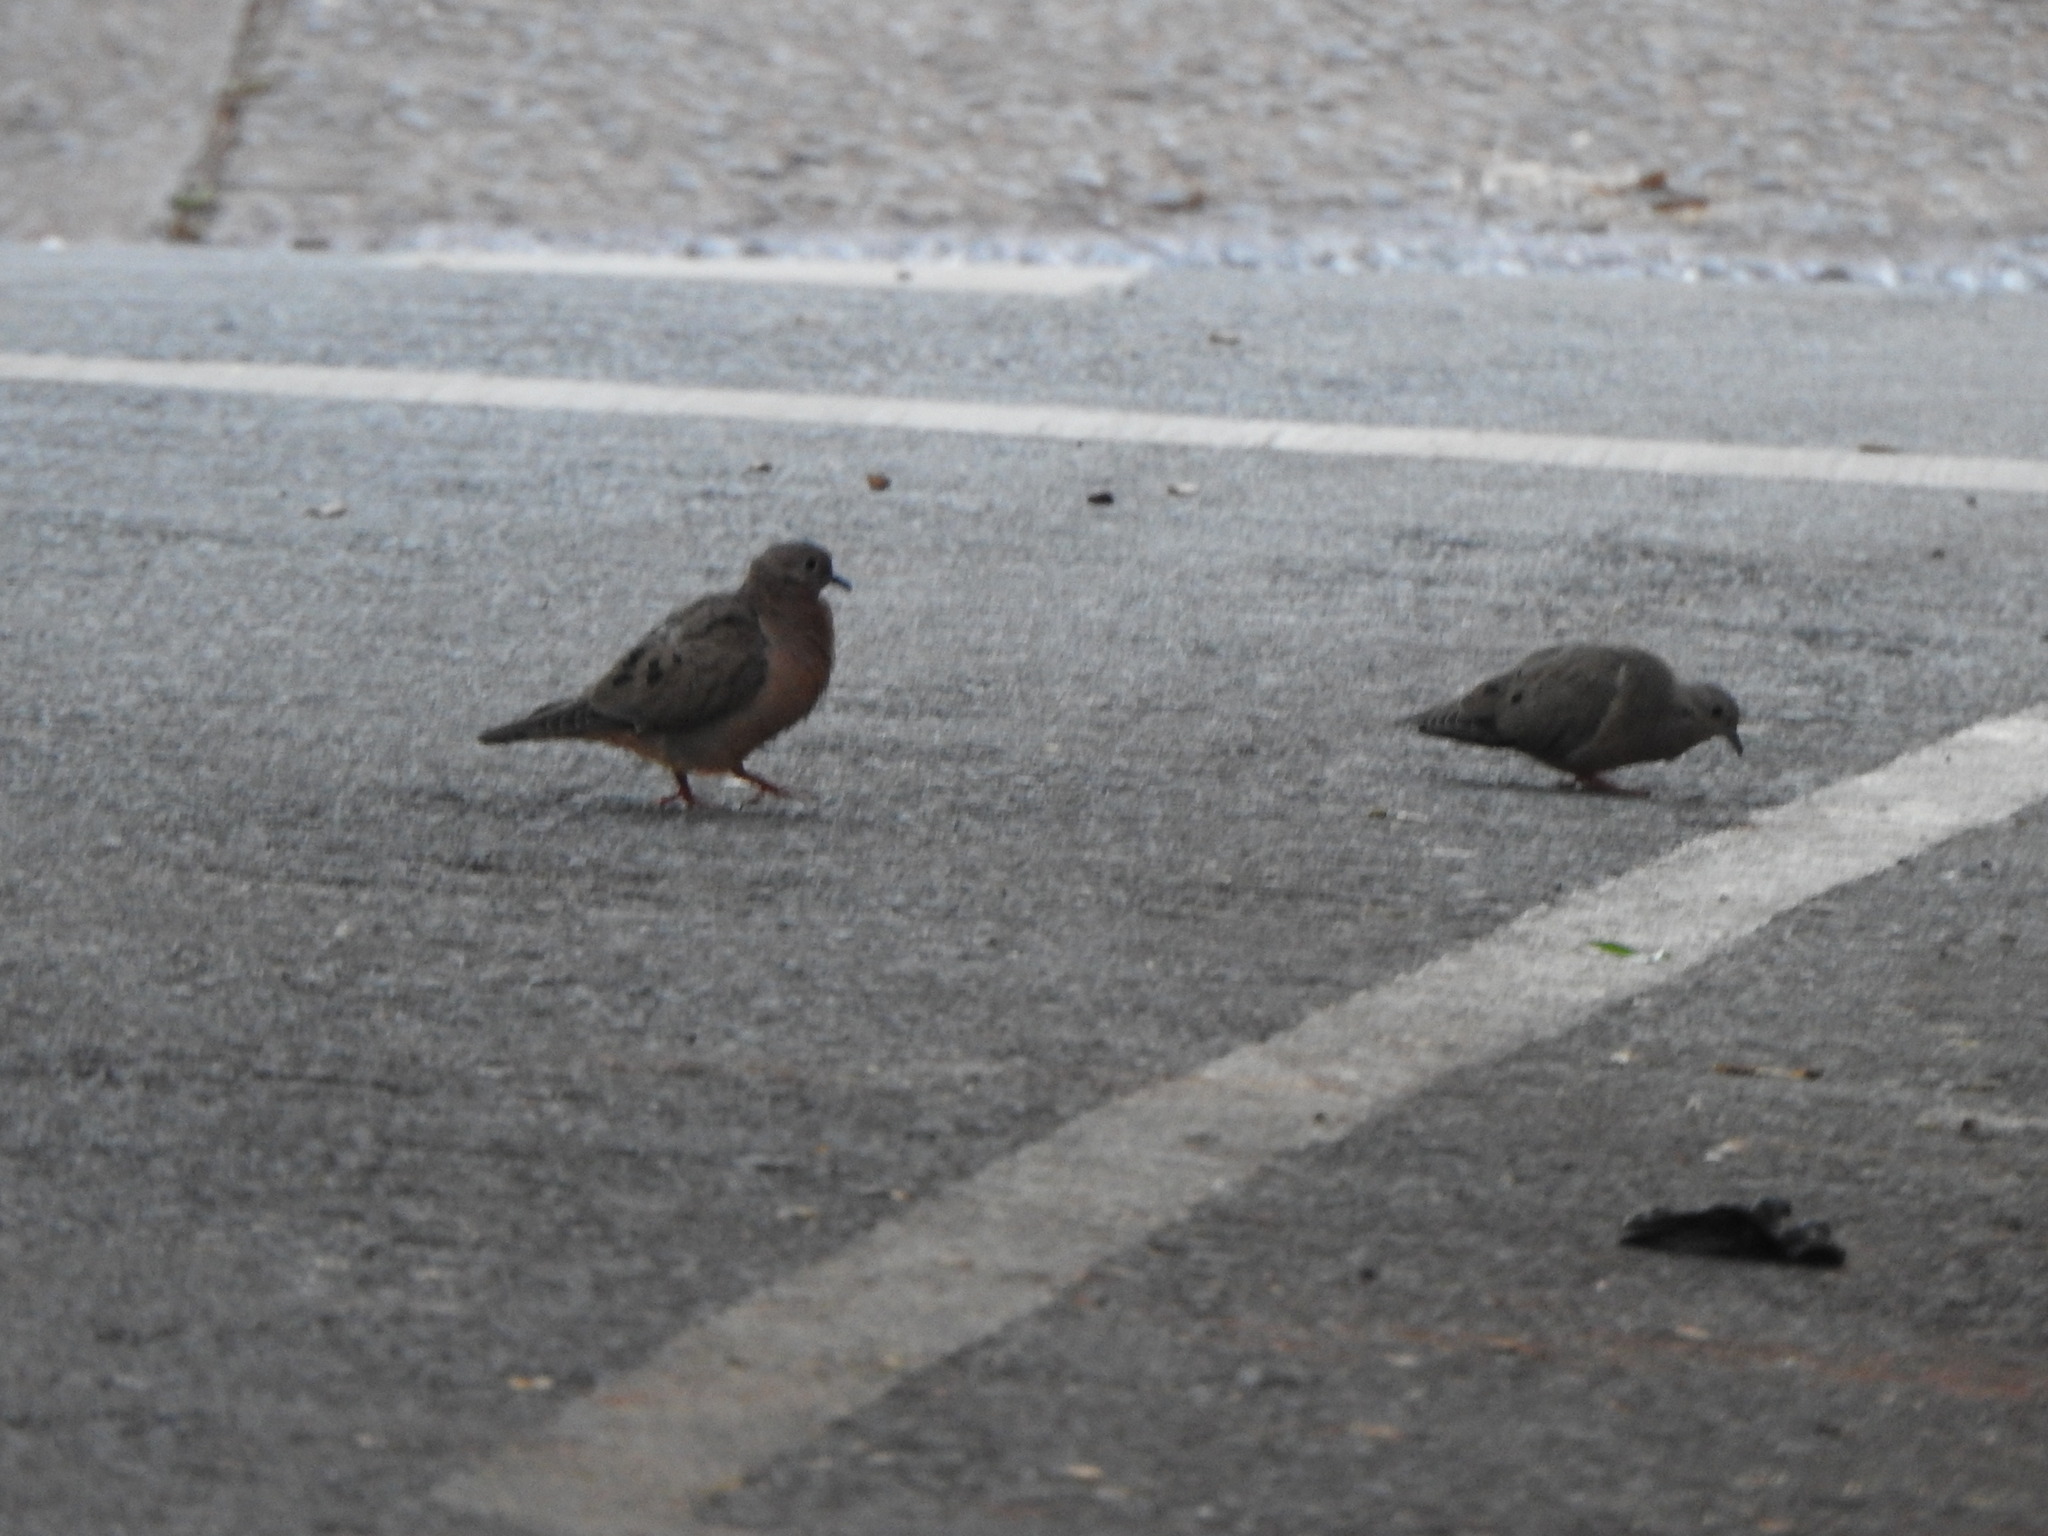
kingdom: Animalia
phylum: Chordata
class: Aves
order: Columbiformes
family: Columbidae
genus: Zenaida
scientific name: Zenaida auriculata
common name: Eared dove
